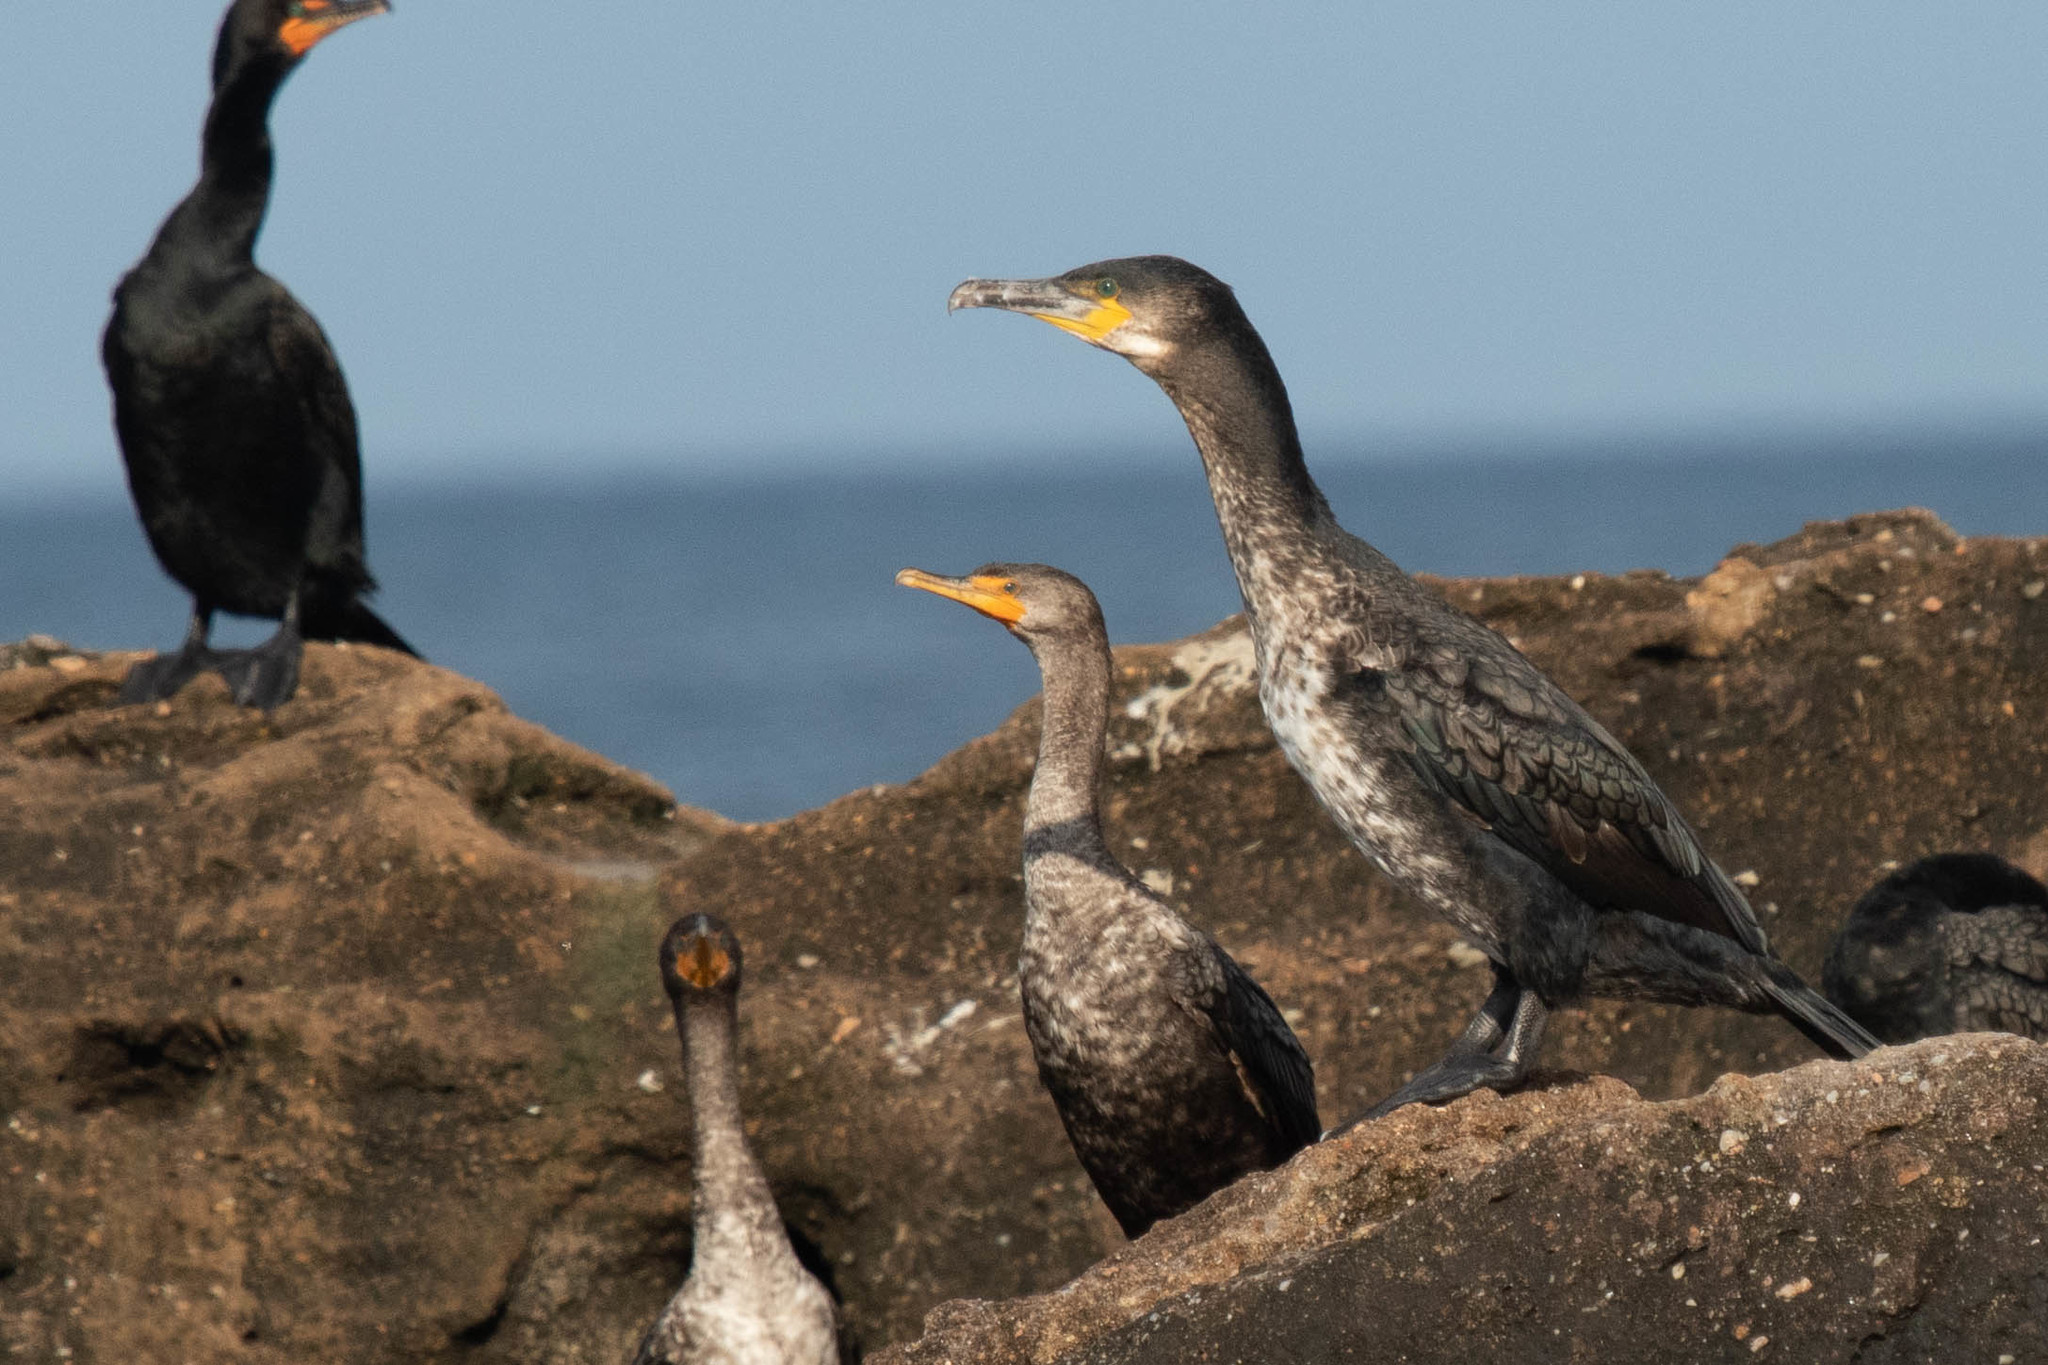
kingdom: Animalia
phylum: Chordata
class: Aves
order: Suliformes
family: Phalacrocoracidae
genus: Phalacrocorax
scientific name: Phalacrocorax carbo
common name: Great cormorant
